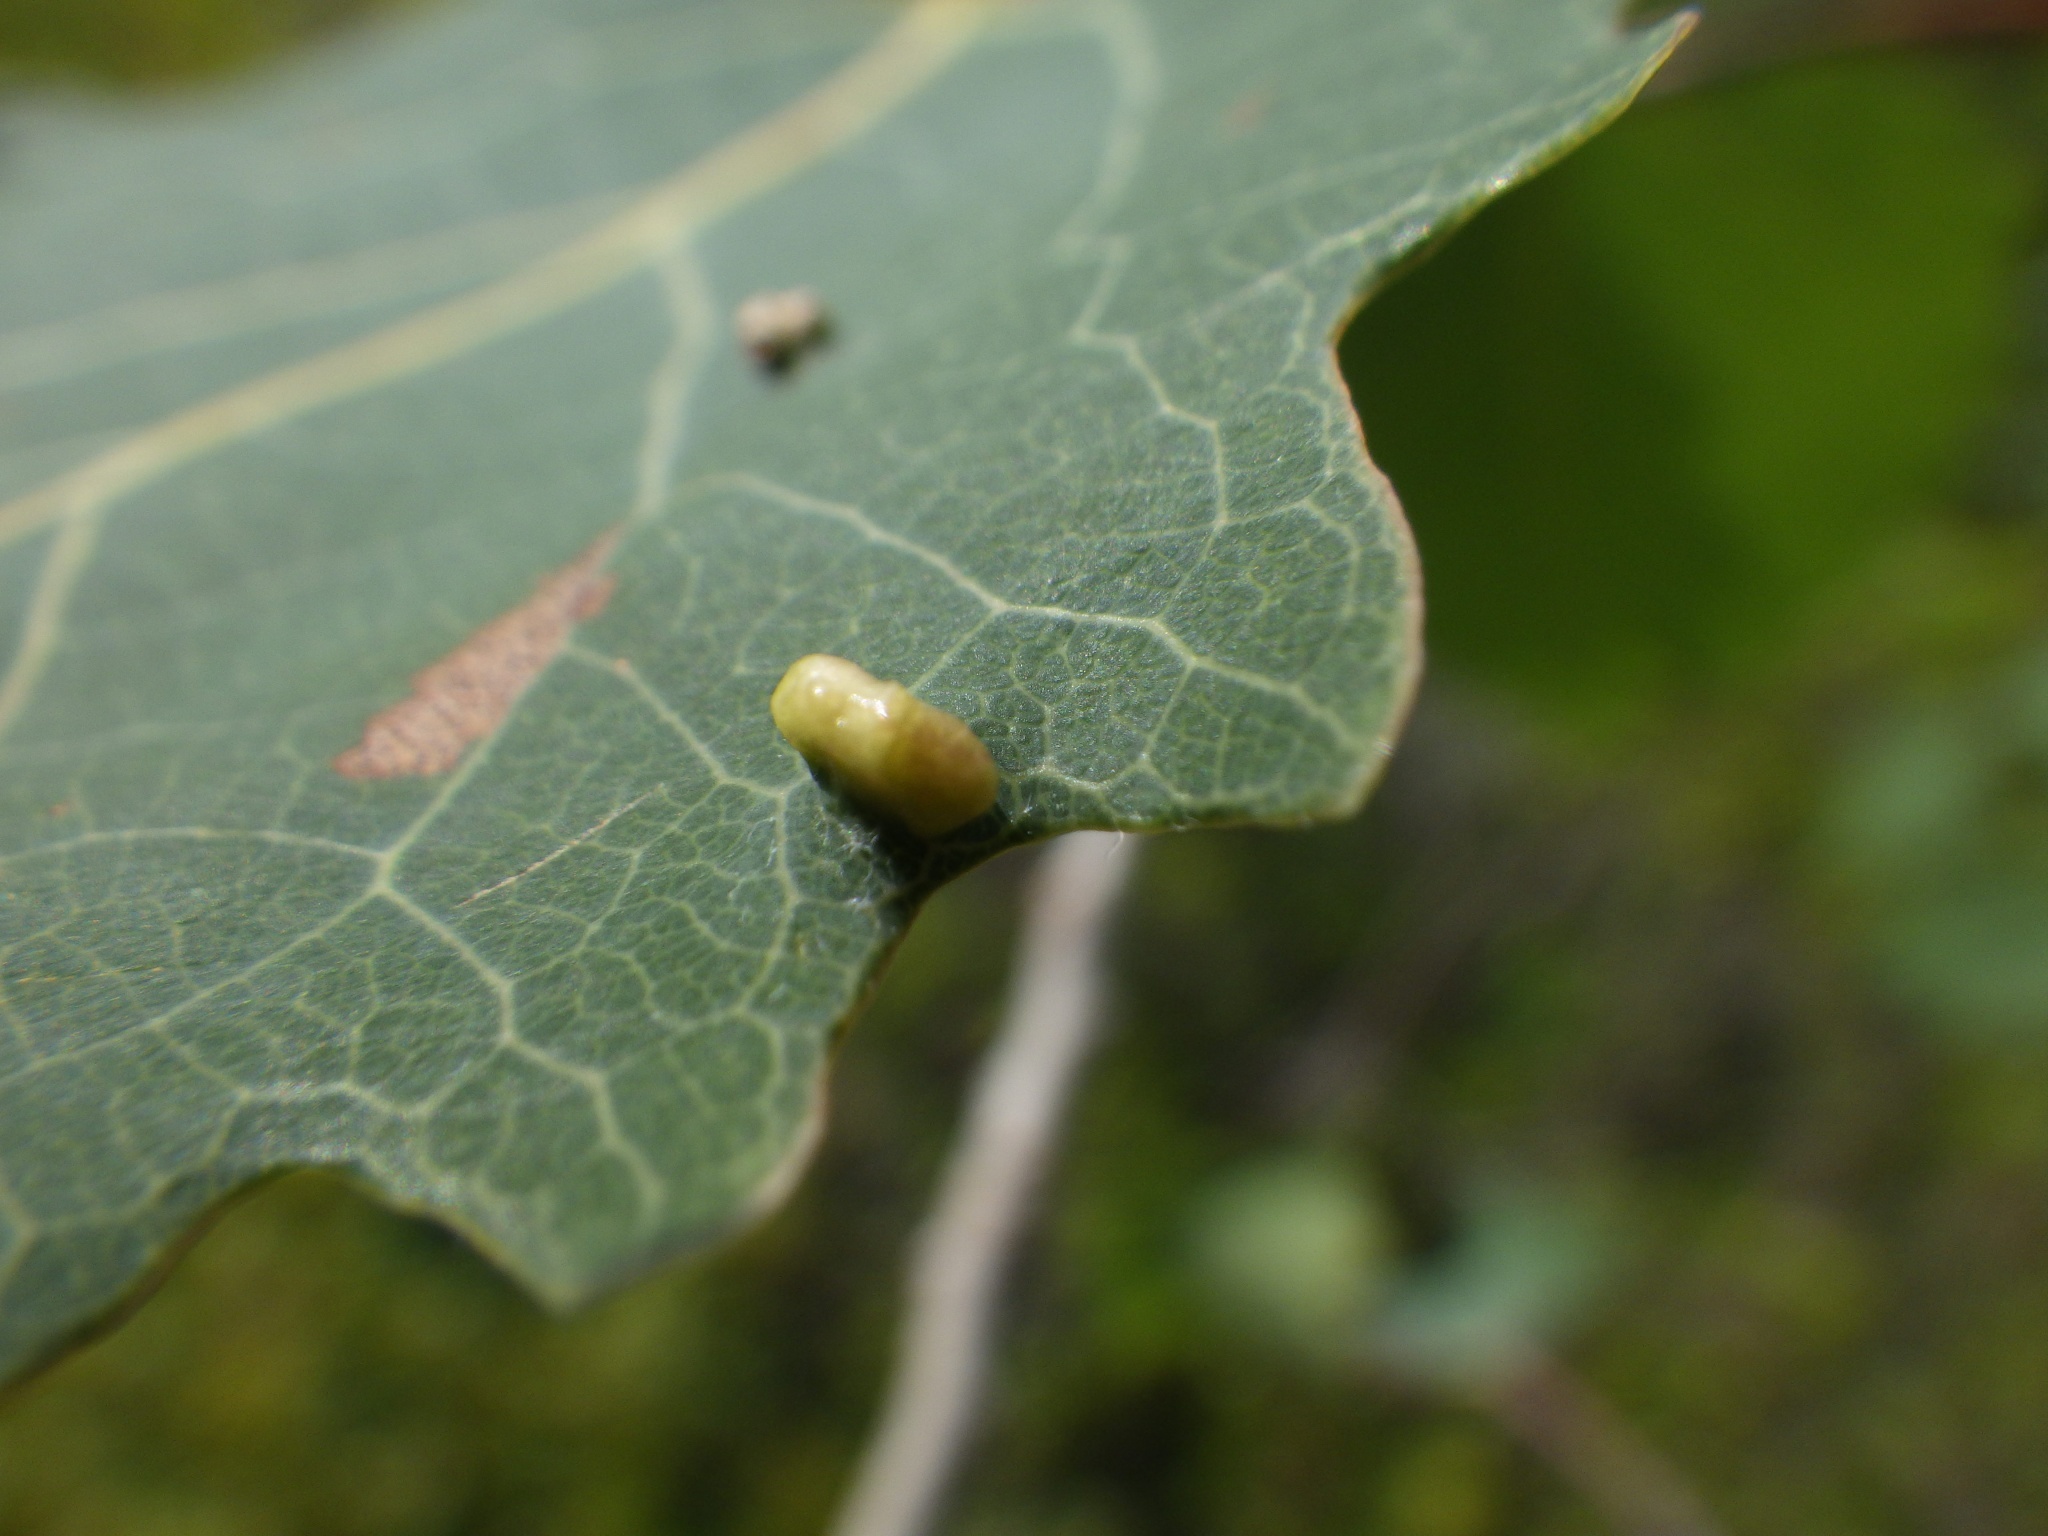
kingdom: Plantae
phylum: Tracheophyta
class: Magnoliopsida
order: Malpighiales
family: Salicaceae
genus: Populus
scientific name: Populus grandidentata
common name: Bigtooth aspen
